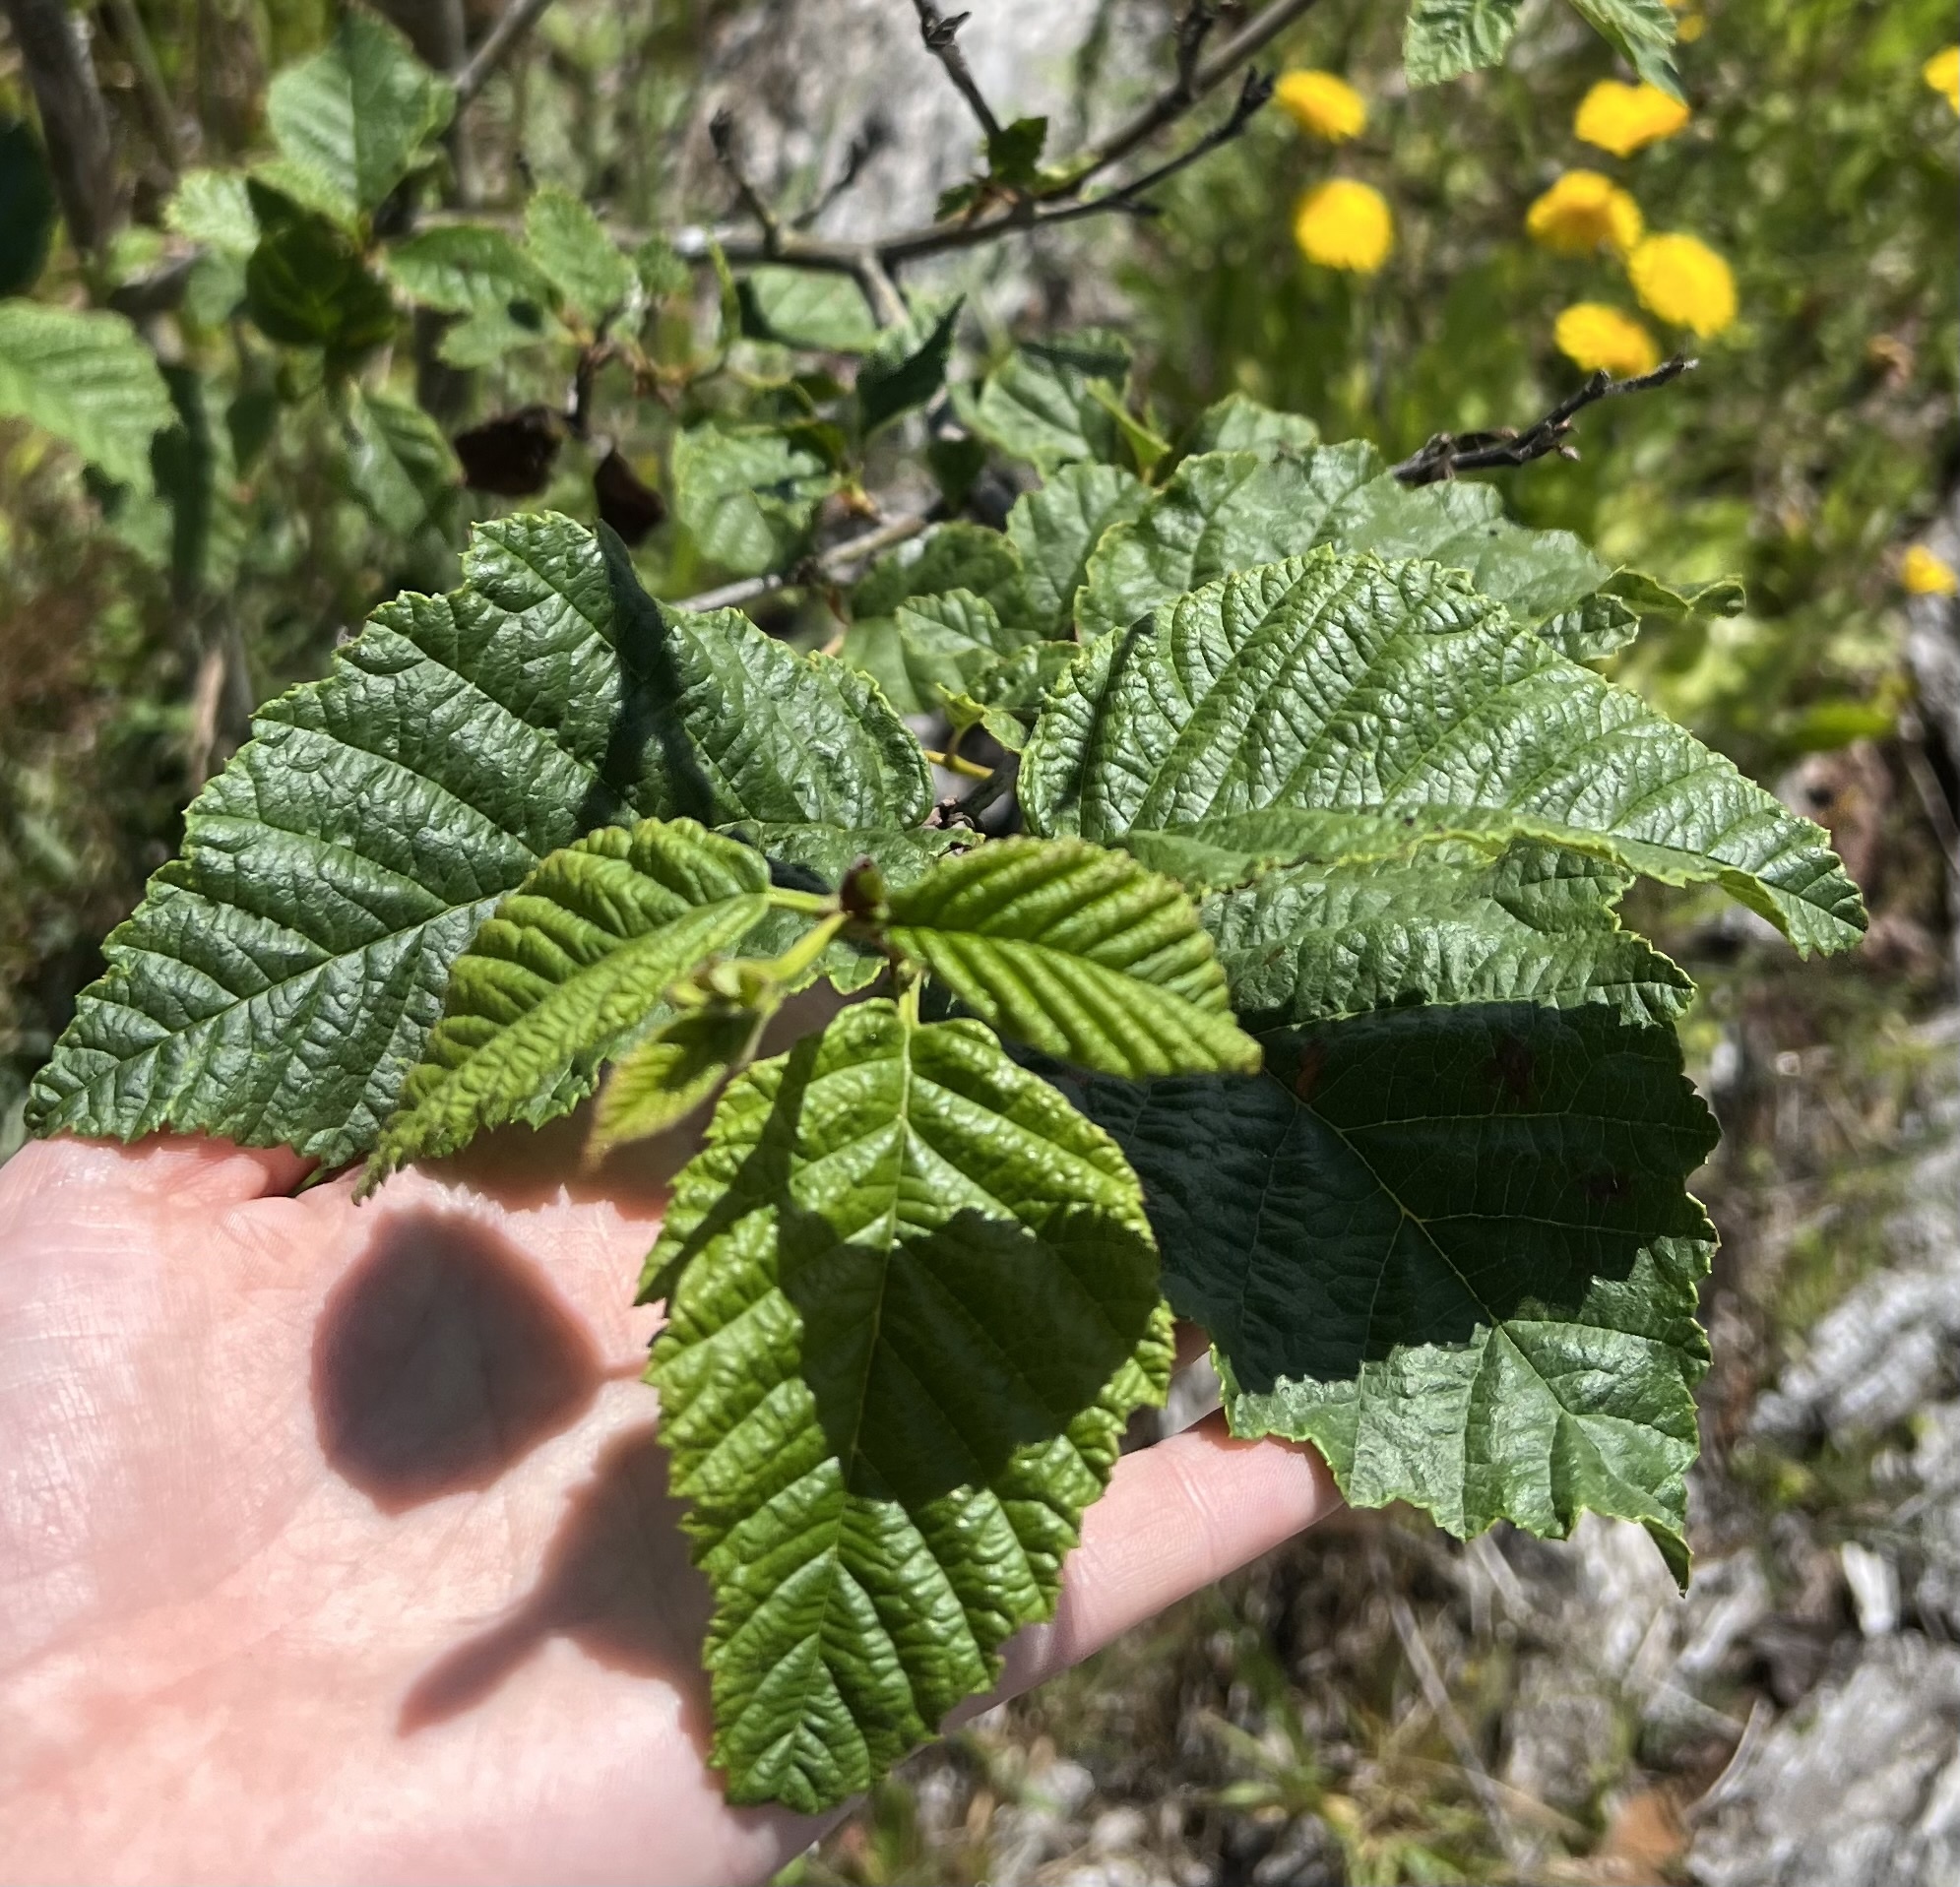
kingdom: Plantae
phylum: Tracheophyta
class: Magnoliopsida
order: Fagales
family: Betulaceae
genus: Alnus
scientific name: Alnus rubra
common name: Red alder
